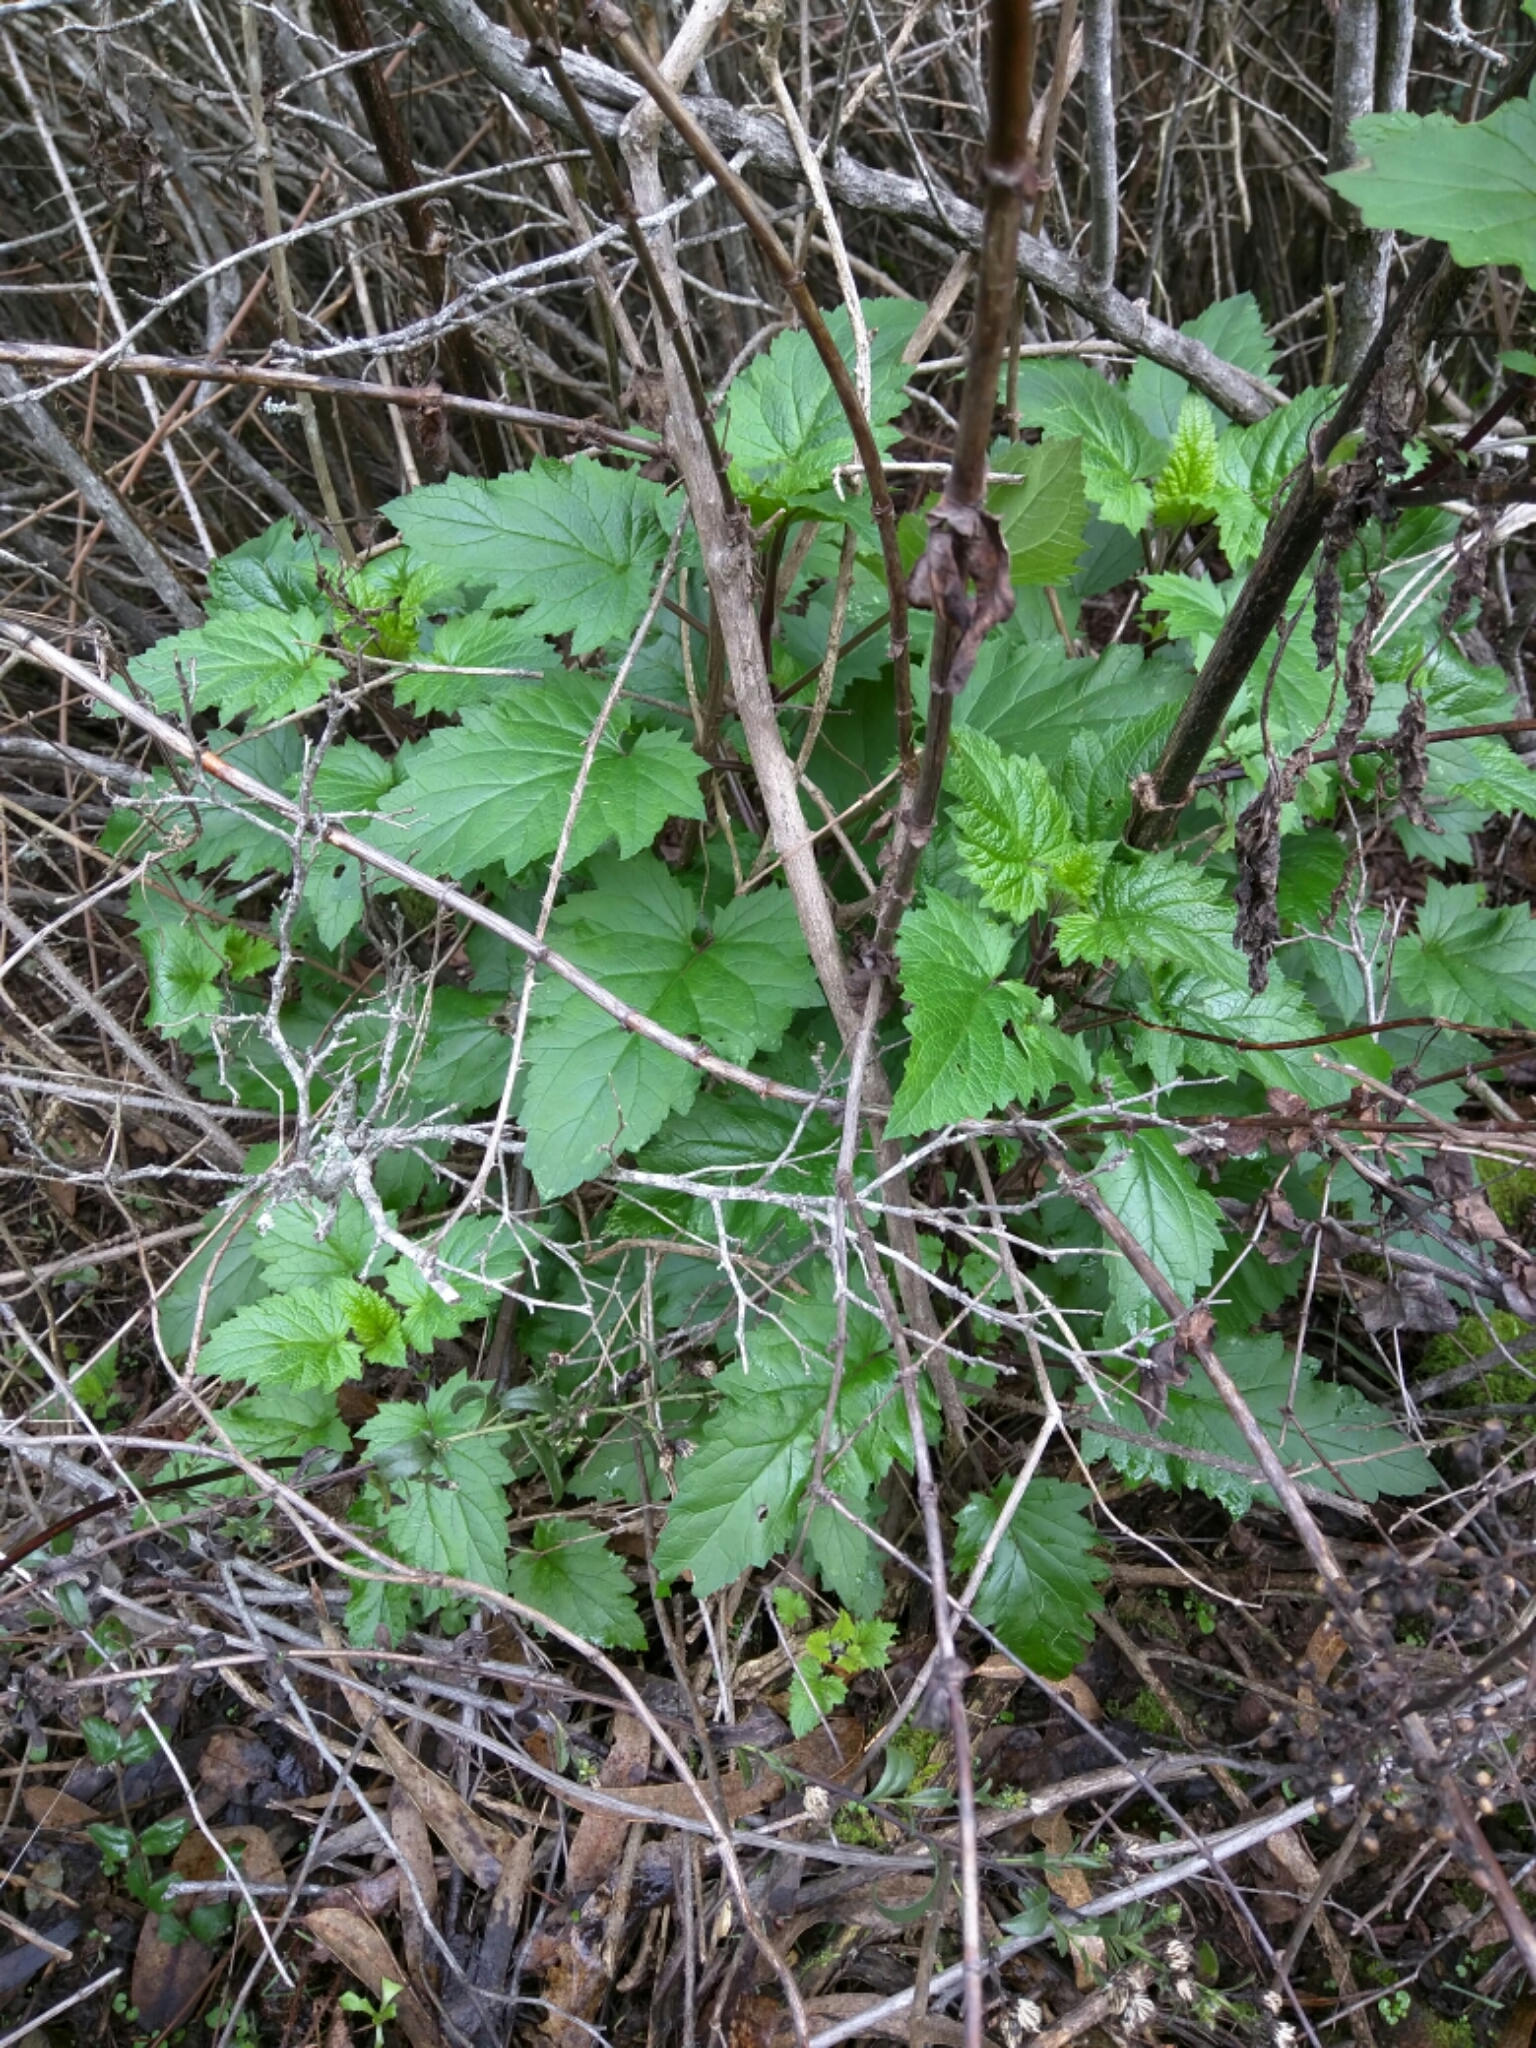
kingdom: Plantae
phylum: Tracheophyta
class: Magnoliopsida
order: Lamiales
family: Scrophulariaceae
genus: Scrophularia
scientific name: Scrophularia californica
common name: California figwort
